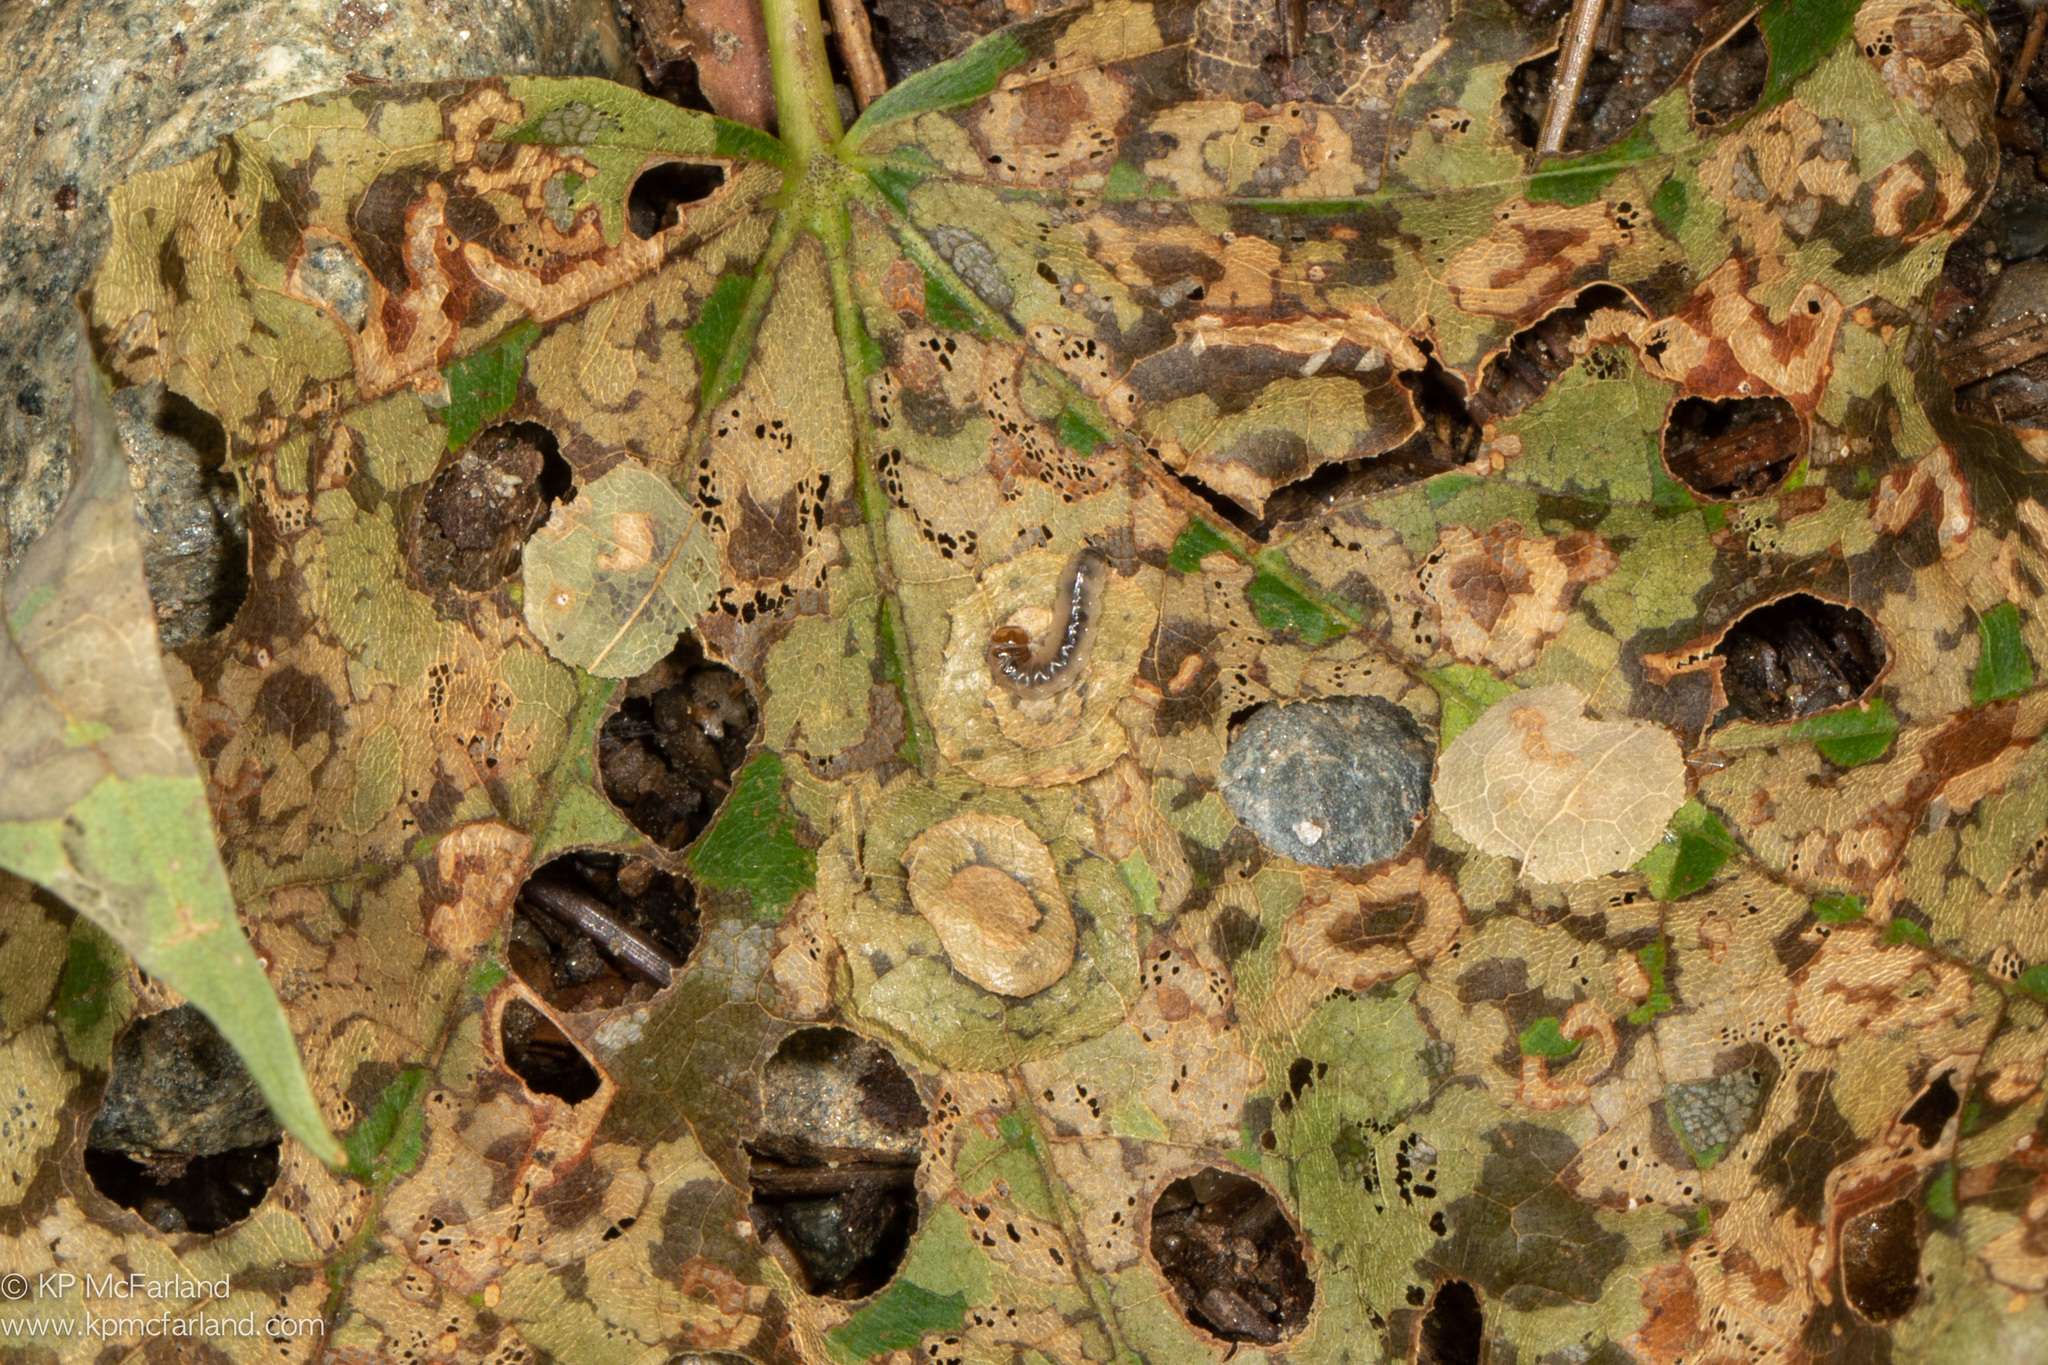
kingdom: Animalia
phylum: Arthropoda
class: Insecta
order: Lepidoptera
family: Incurvariidae
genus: Paraclemensia
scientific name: Paraclemensia acerifoliella
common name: Maple leafcutter
